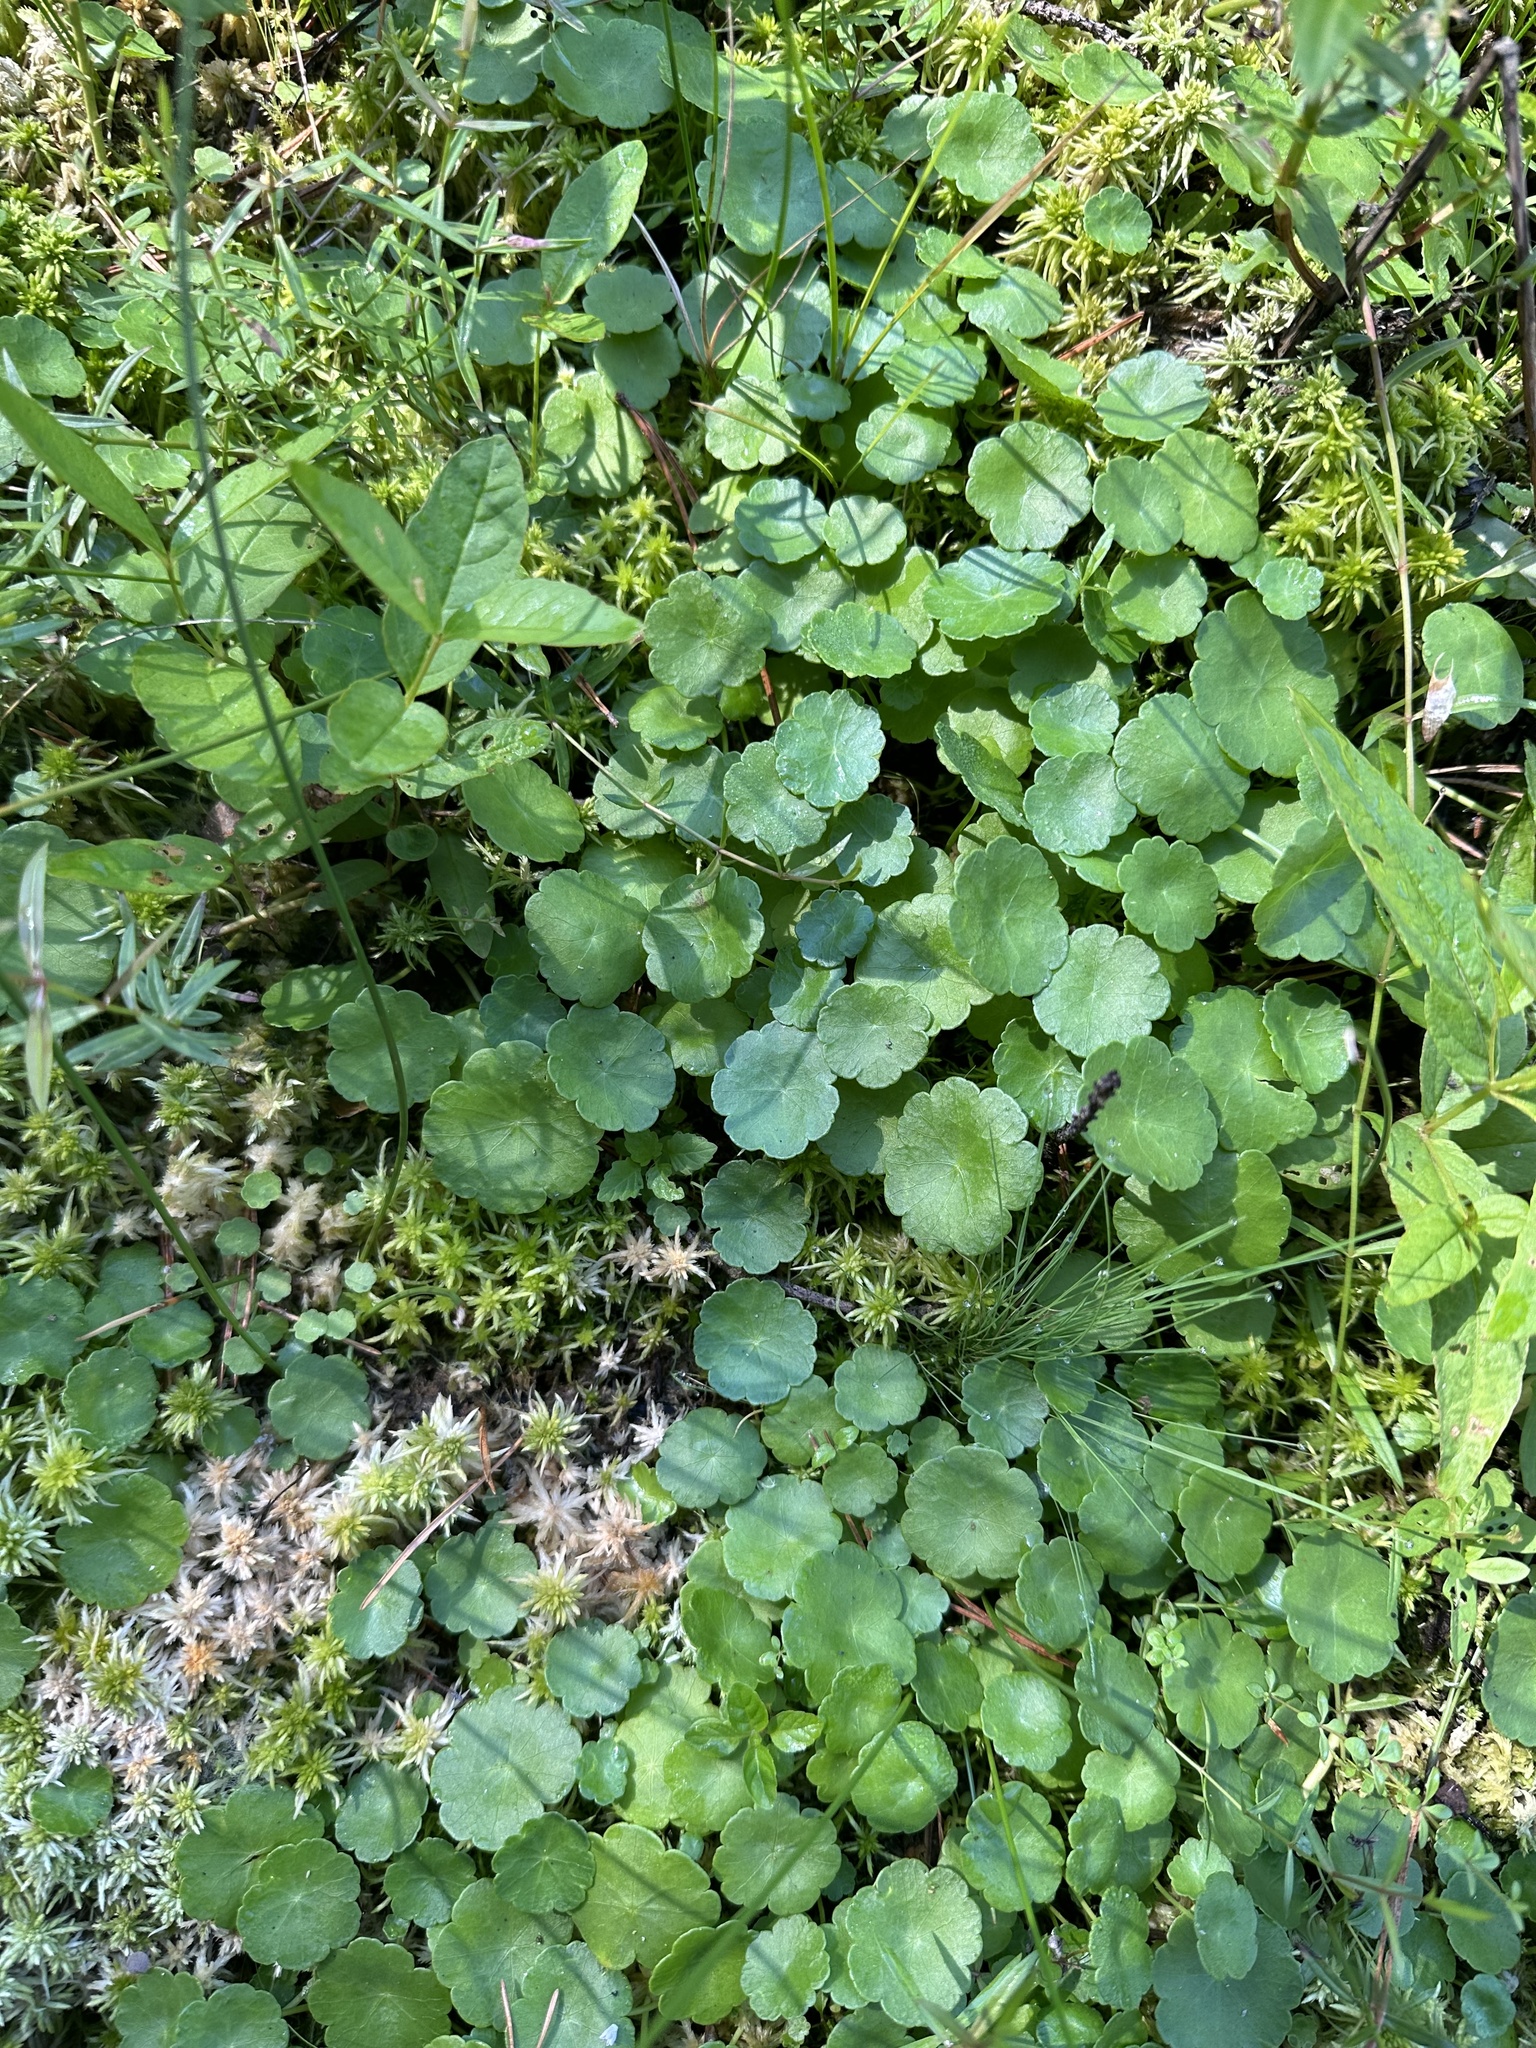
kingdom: Plantae
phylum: Tracheophyta
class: Magnoliopsida
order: Apiales
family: Araliaceae
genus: Hydrocotyle
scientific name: Hydrocotyle vulgaris
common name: Marsh pennywort
